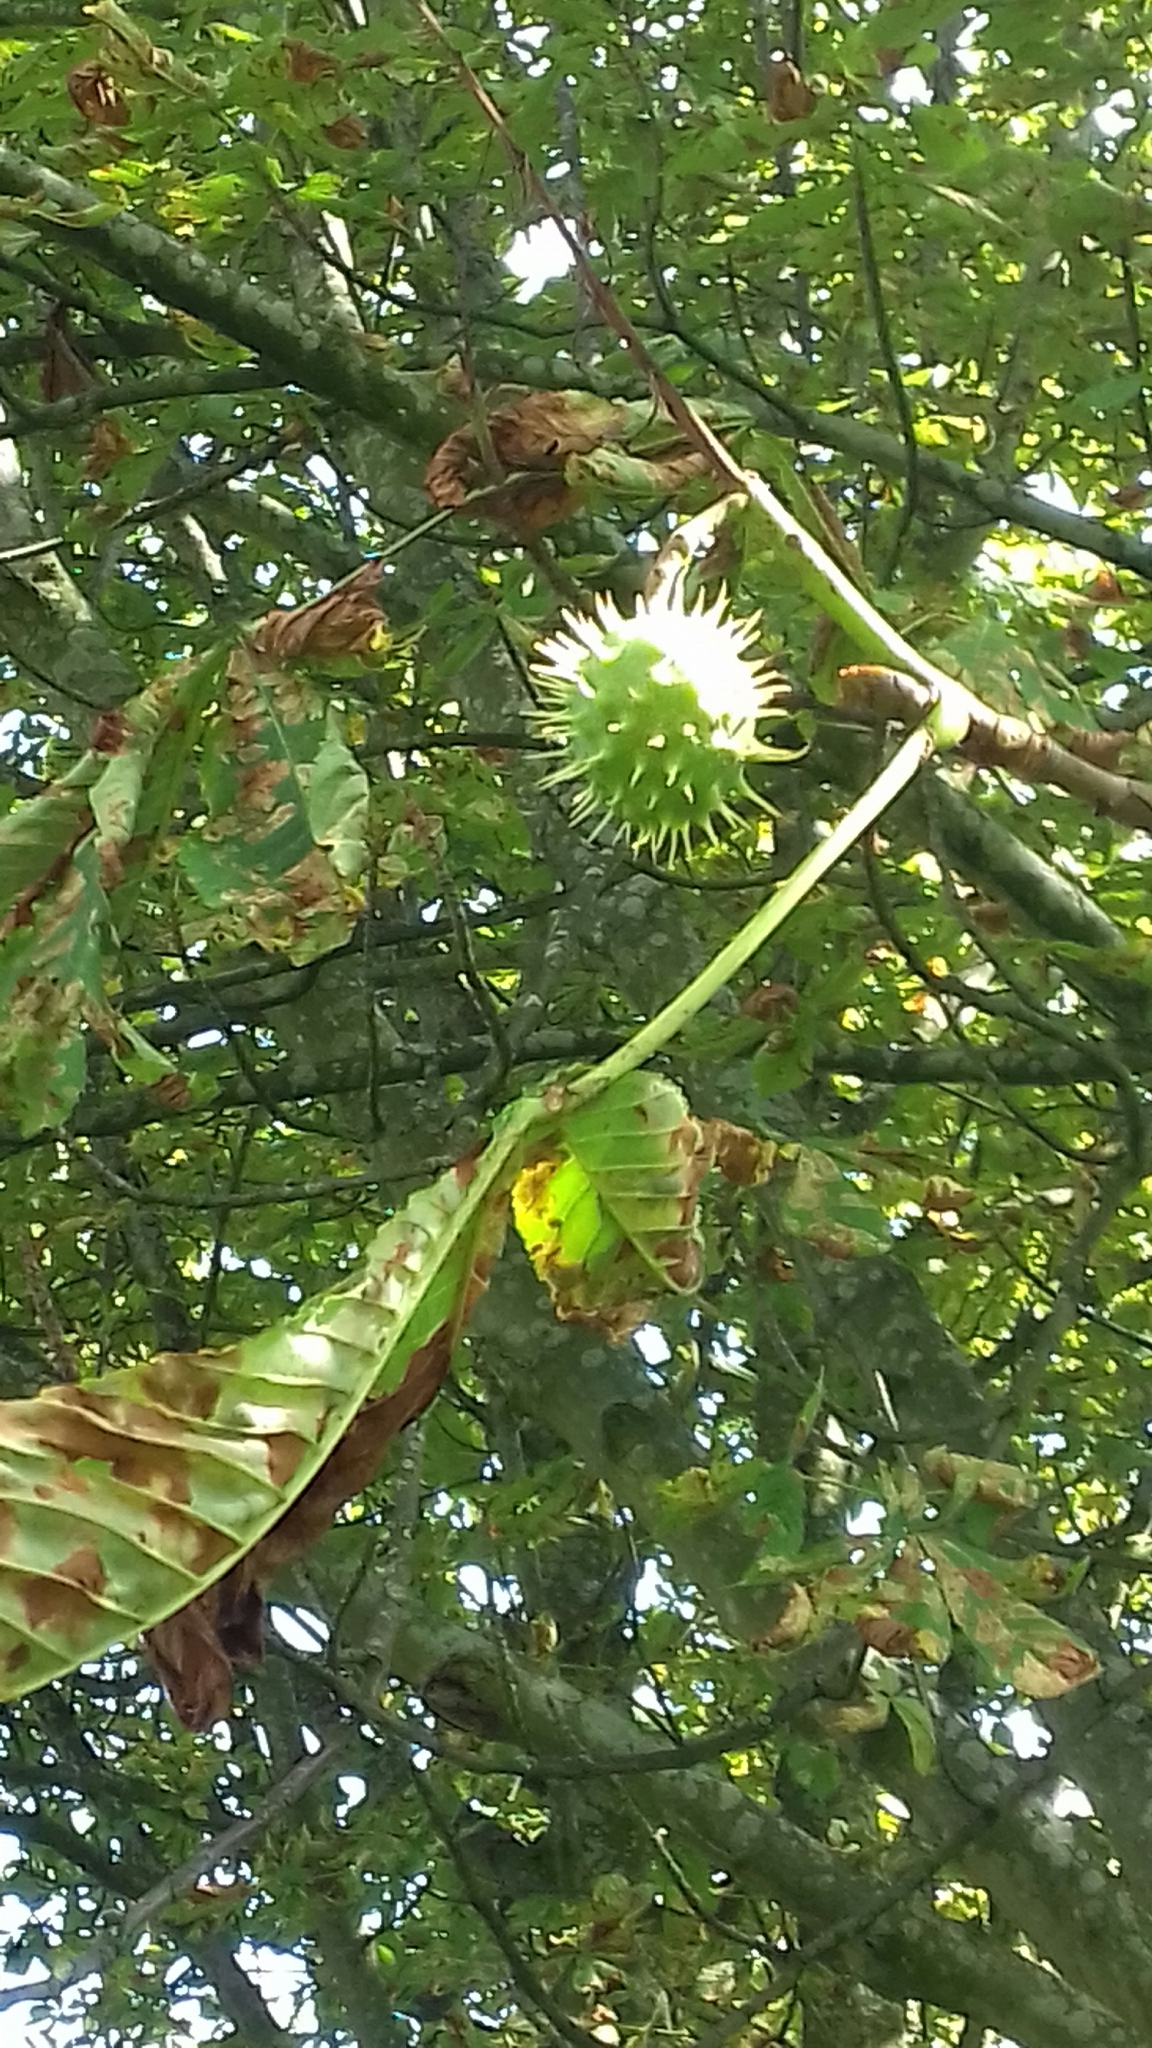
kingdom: Plantae
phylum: Tracheophyta
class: Magnoliopsida
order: Sapindales
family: Sapindaceae
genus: Aesculus
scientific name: Aesculus hippocastanum
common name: Horse-chestnut
